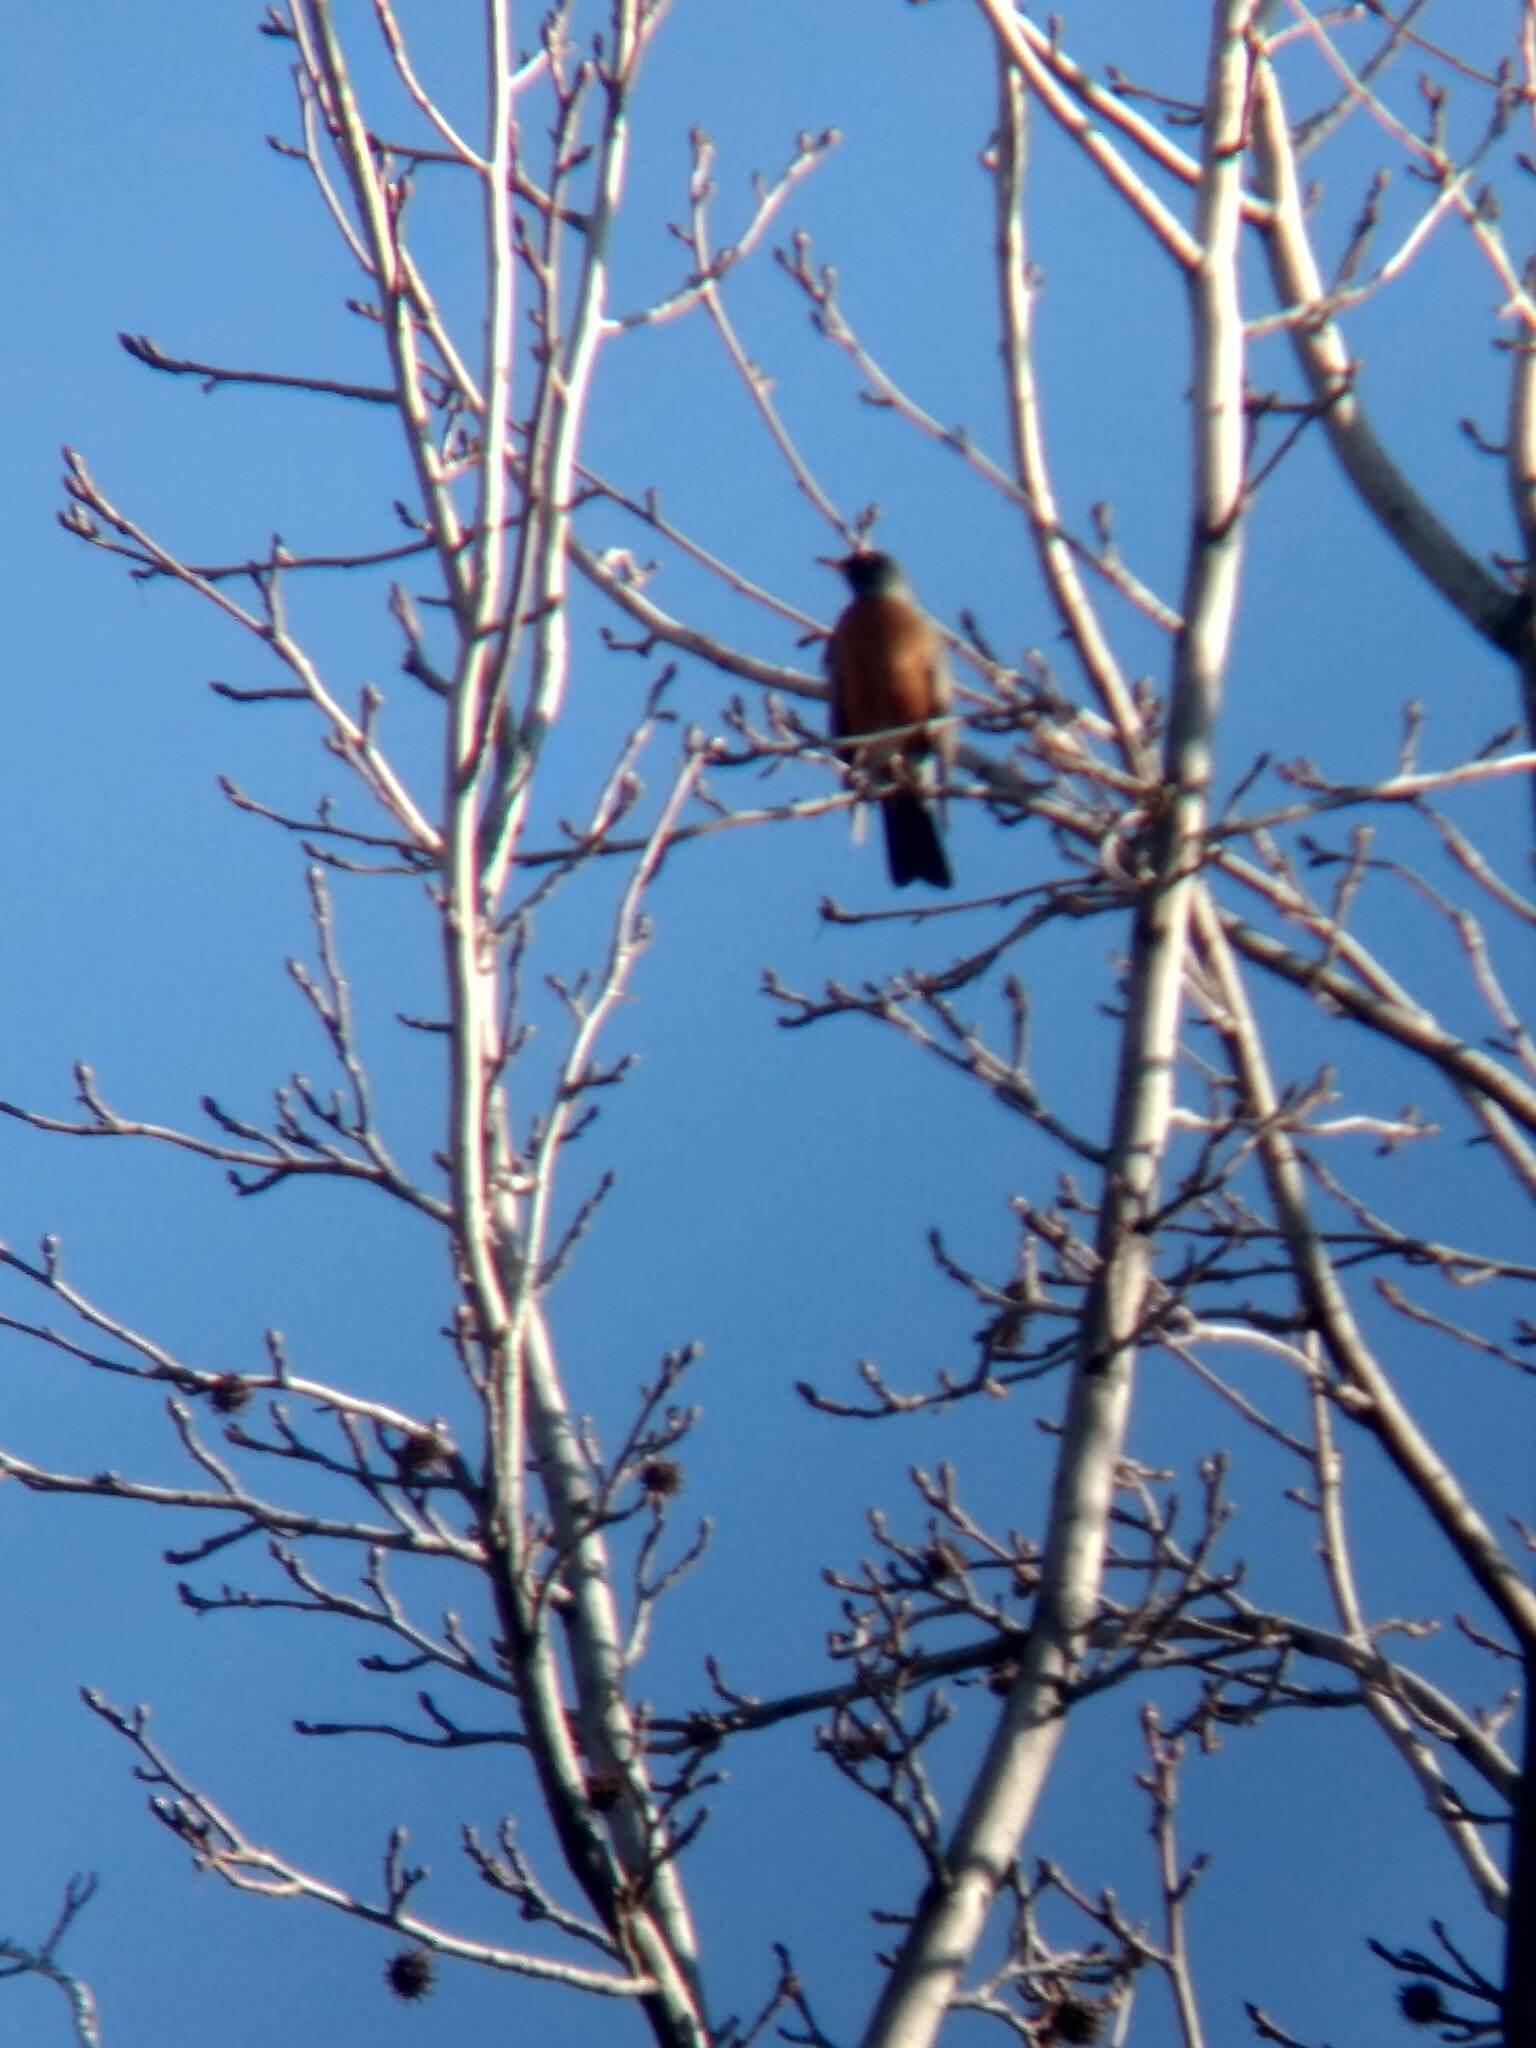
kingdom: Animalia
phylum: Chordata
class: Aves
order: Passeriformes
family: Turdidae
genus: Turdus
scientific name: Turdus migratorius
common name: American robin
